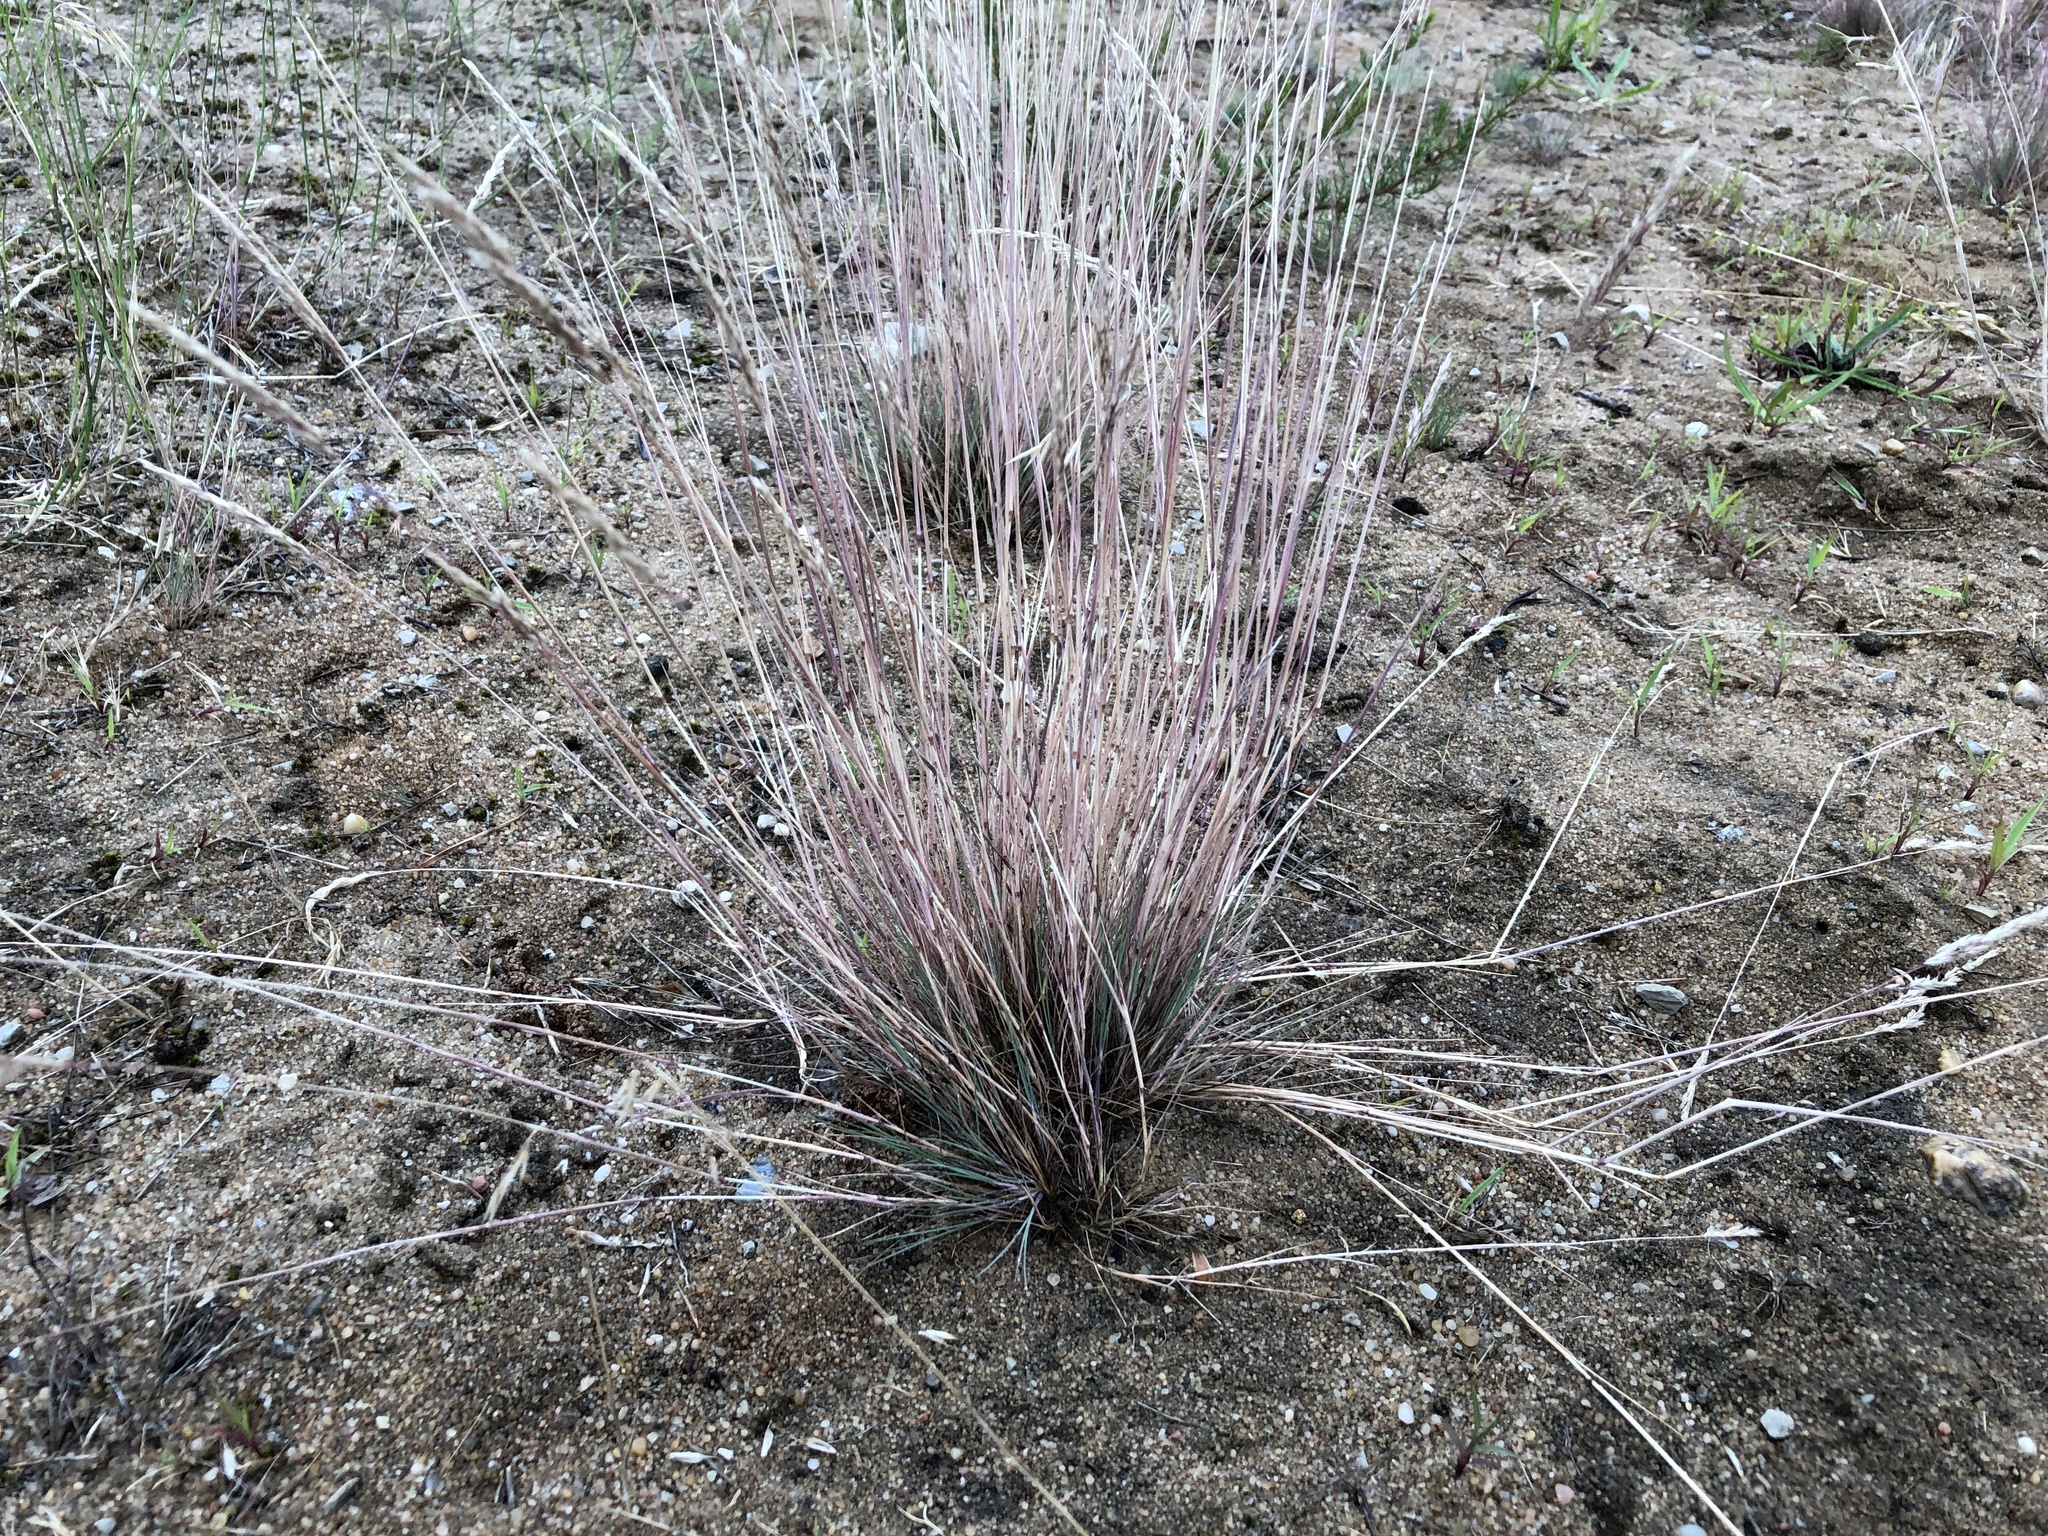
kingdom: Plantae
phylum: Tracheophyta
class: Liliopsida
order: Poales
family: Poaceae
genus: Corynephorus
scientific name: Corynephorus canescens
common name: Grey hair-grass
